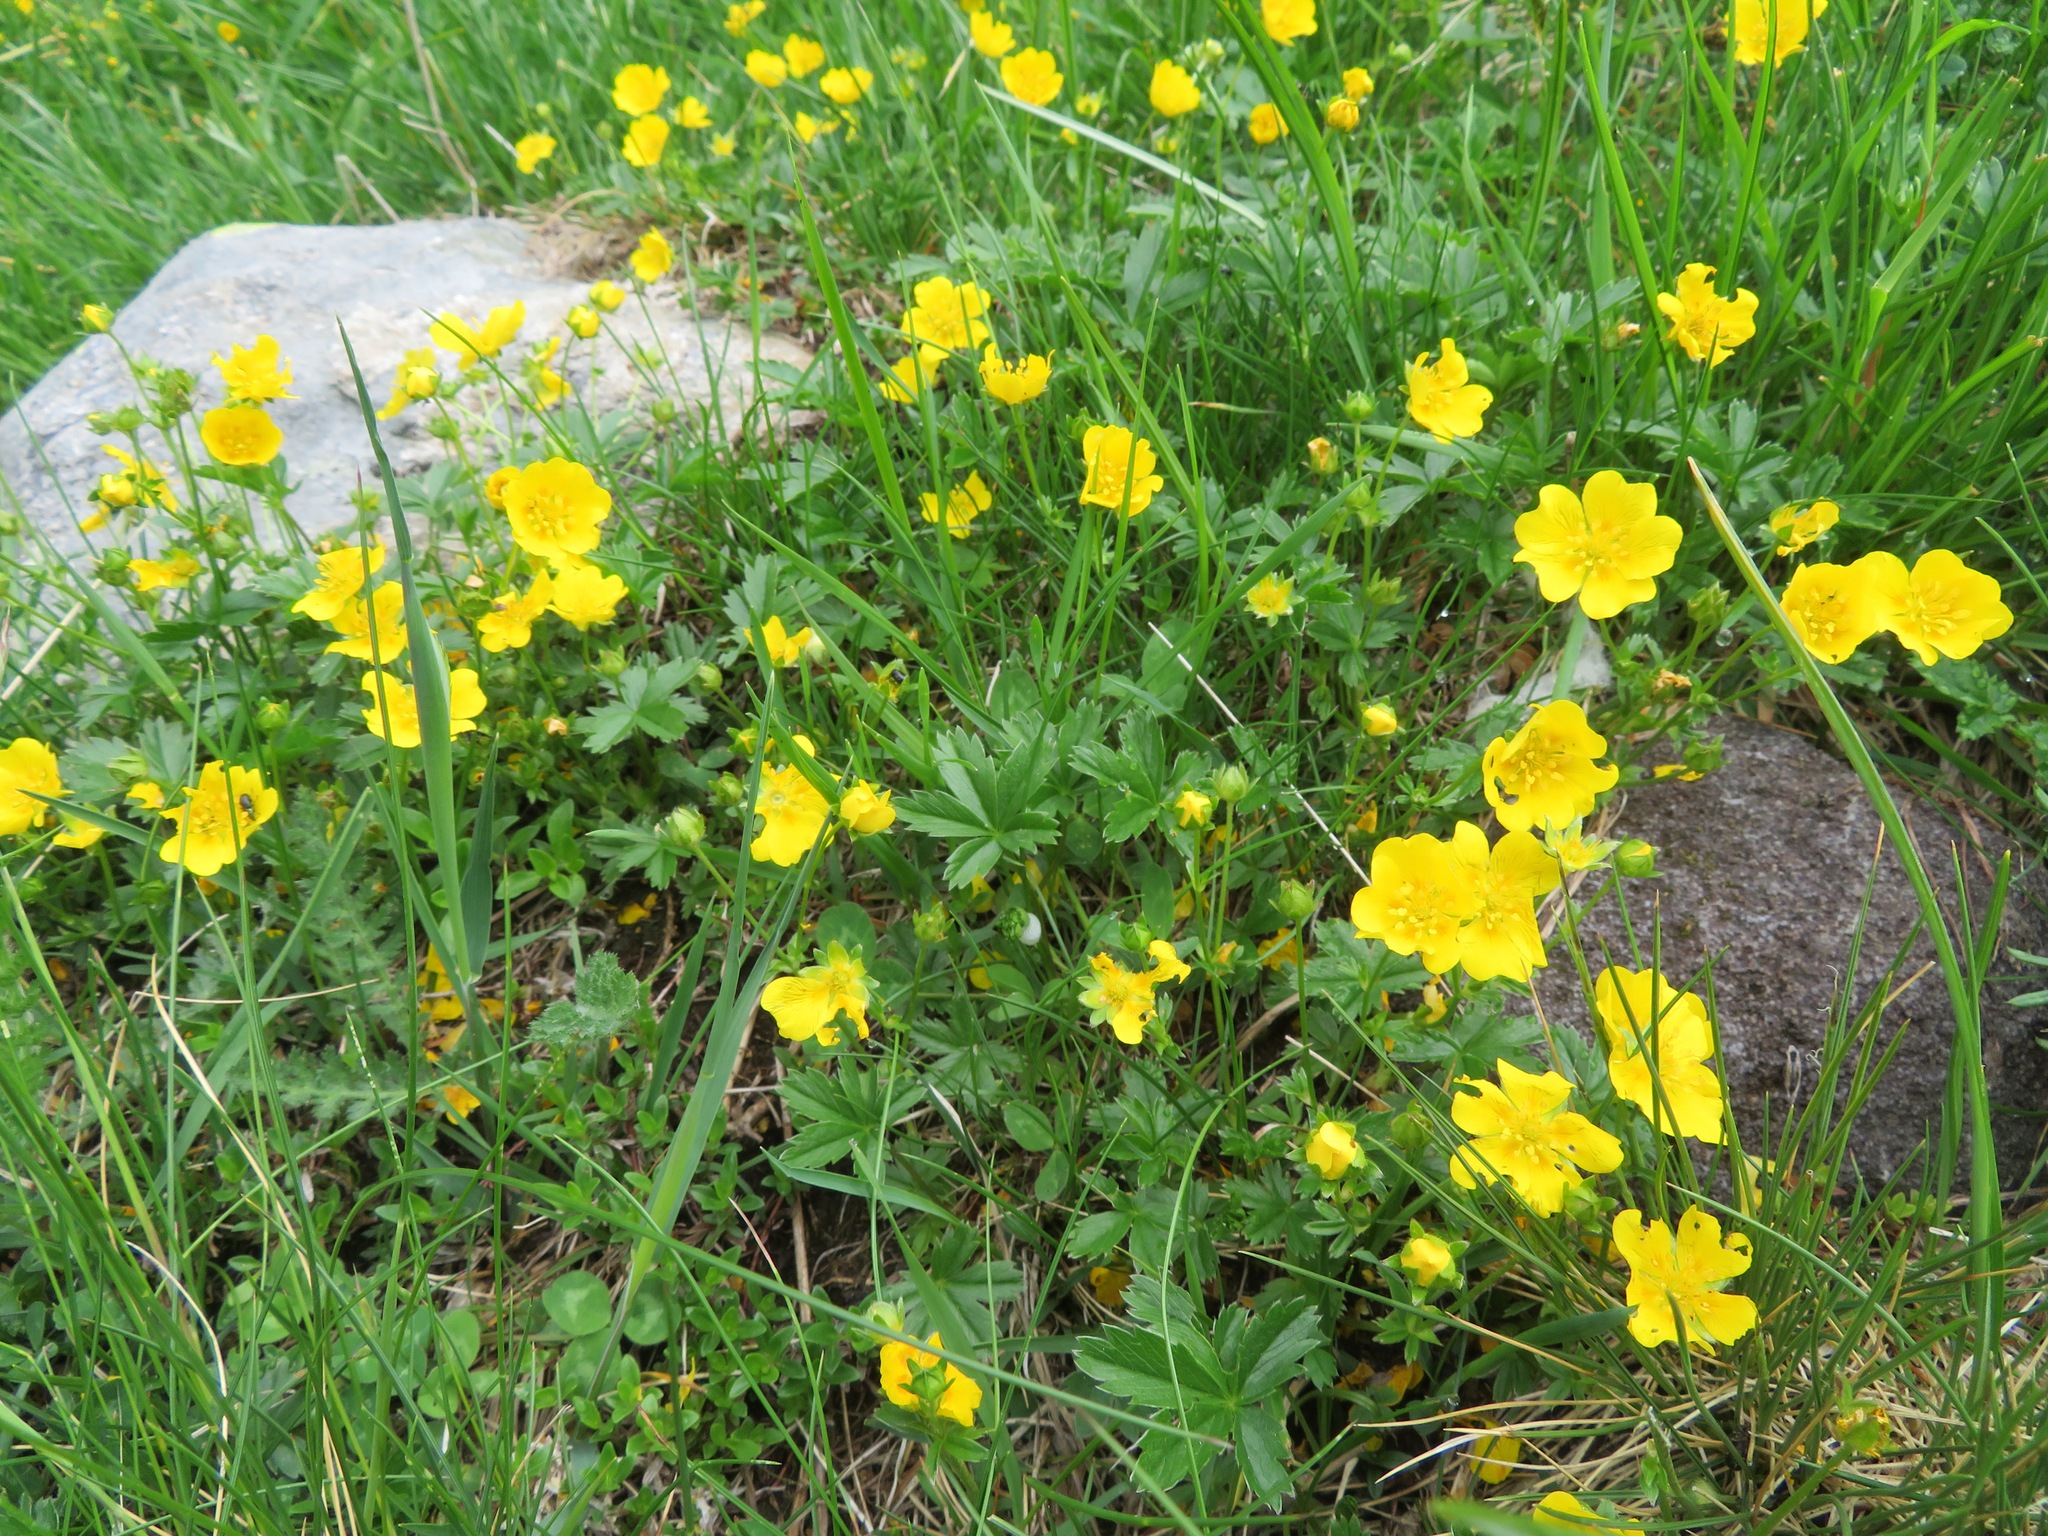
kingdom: Plantae
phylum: Tracheophyta
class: Magnoliopsida
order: Rosales
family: Rosaceae
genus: Potentilla
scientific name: Potentilla aurea
